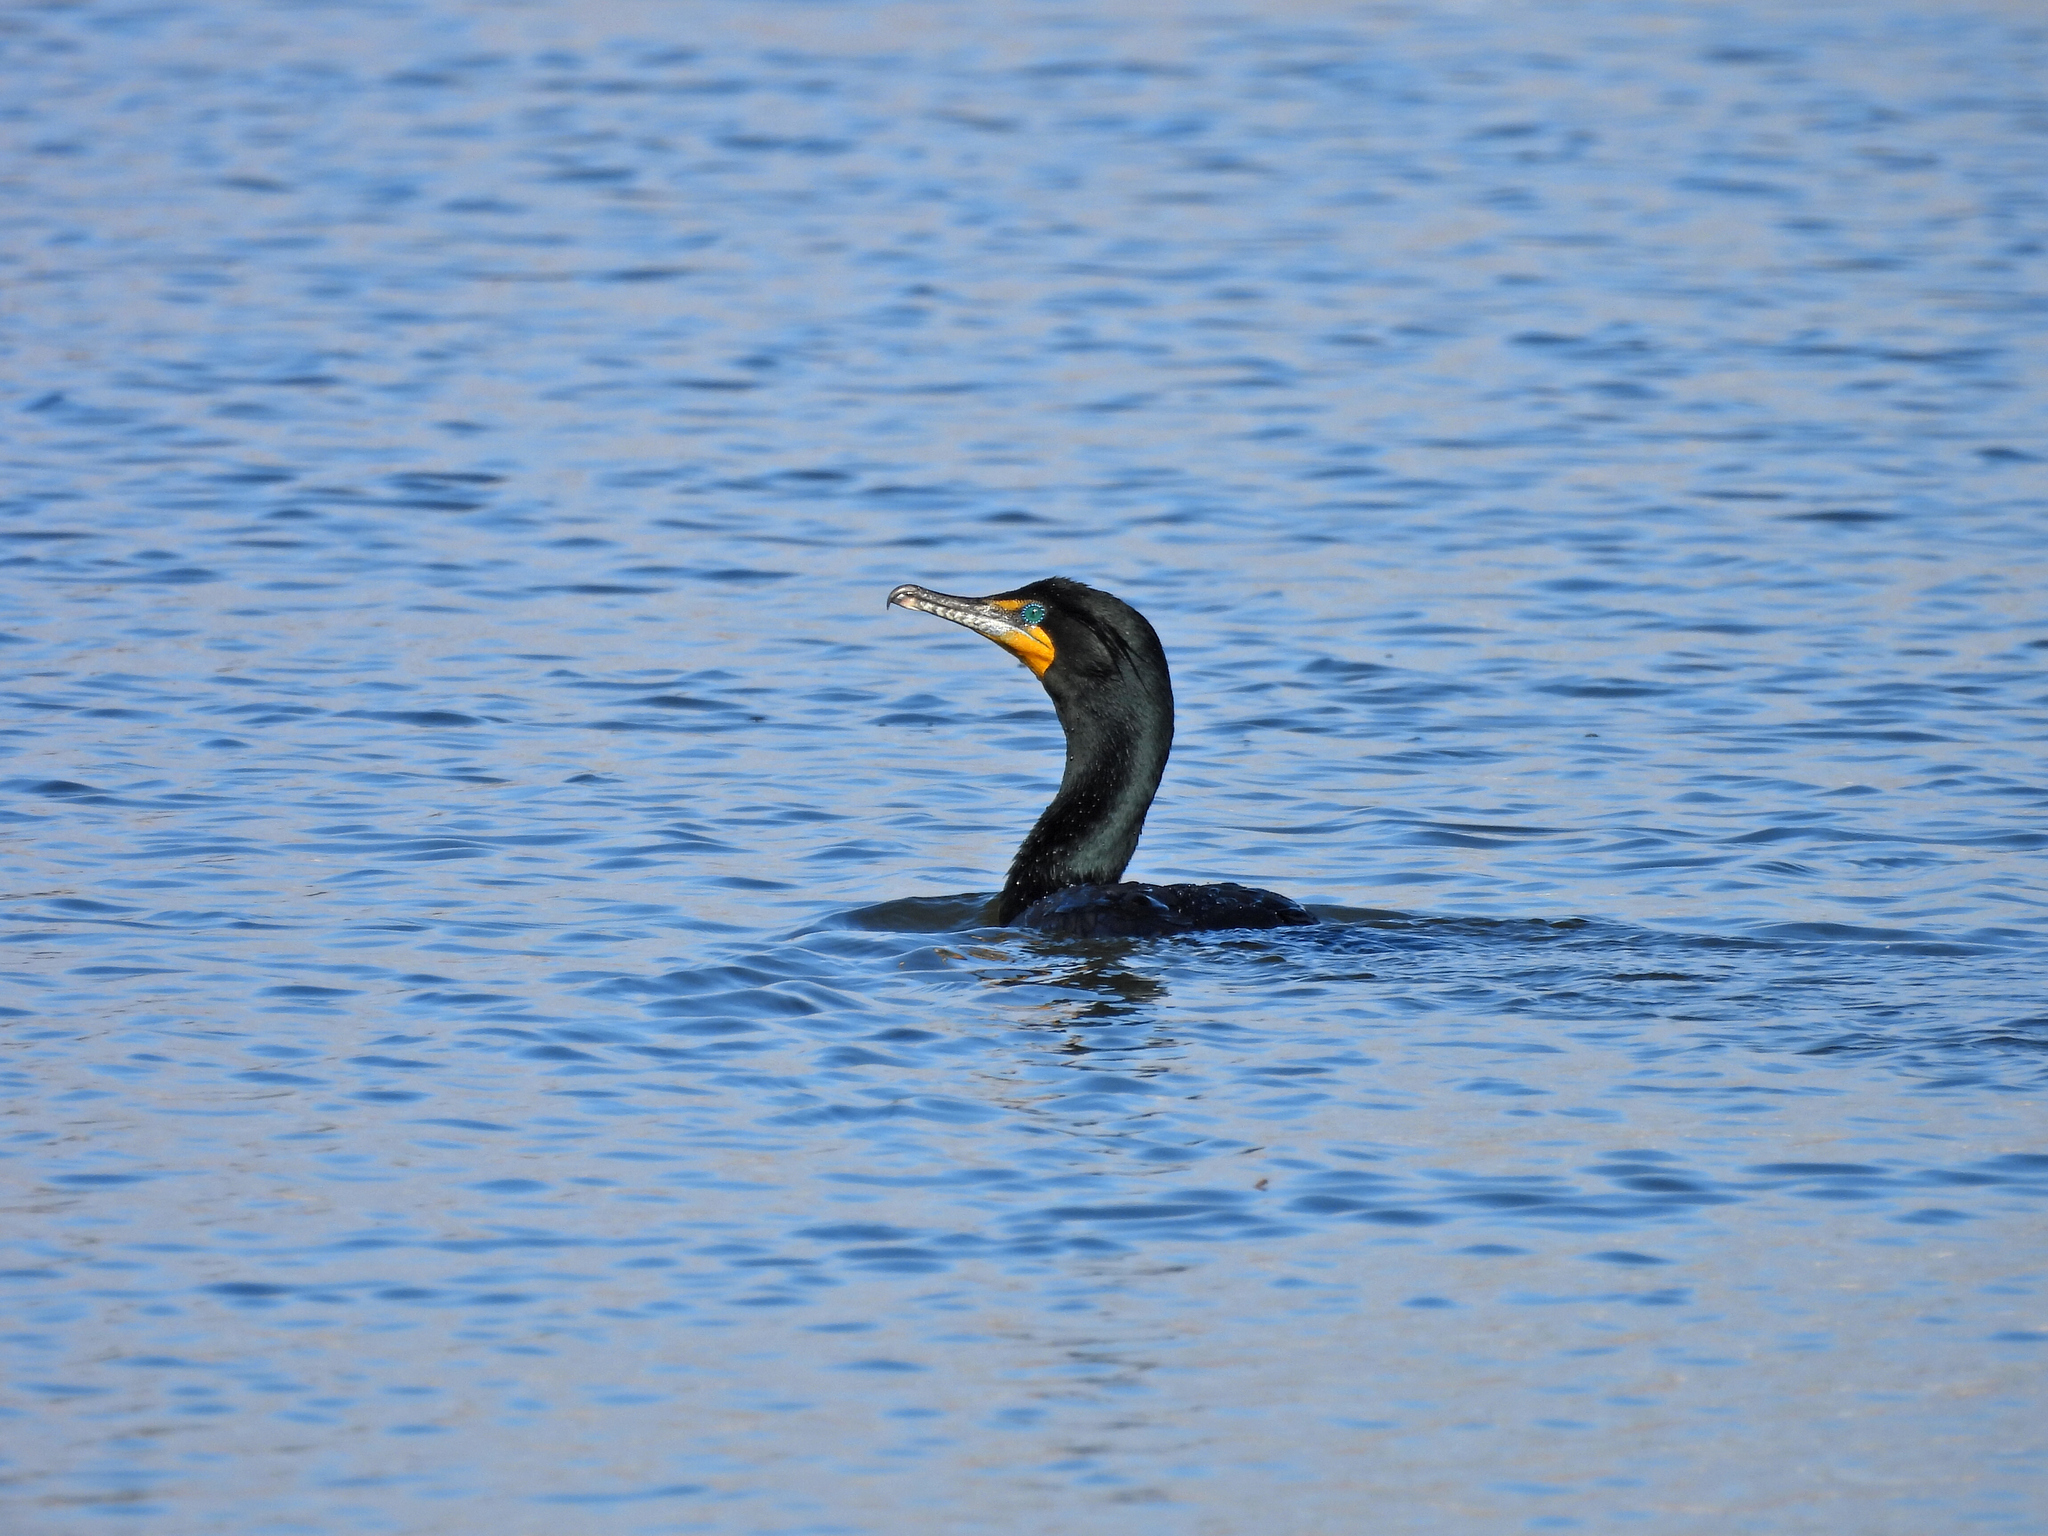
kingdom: Animalia
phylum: Chordata
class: Aves
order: Suliformes
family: Phalacrocoracidae
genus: Phalacrocorax
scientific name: Phalacrocorax auritus
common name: Double-crested cormorant
